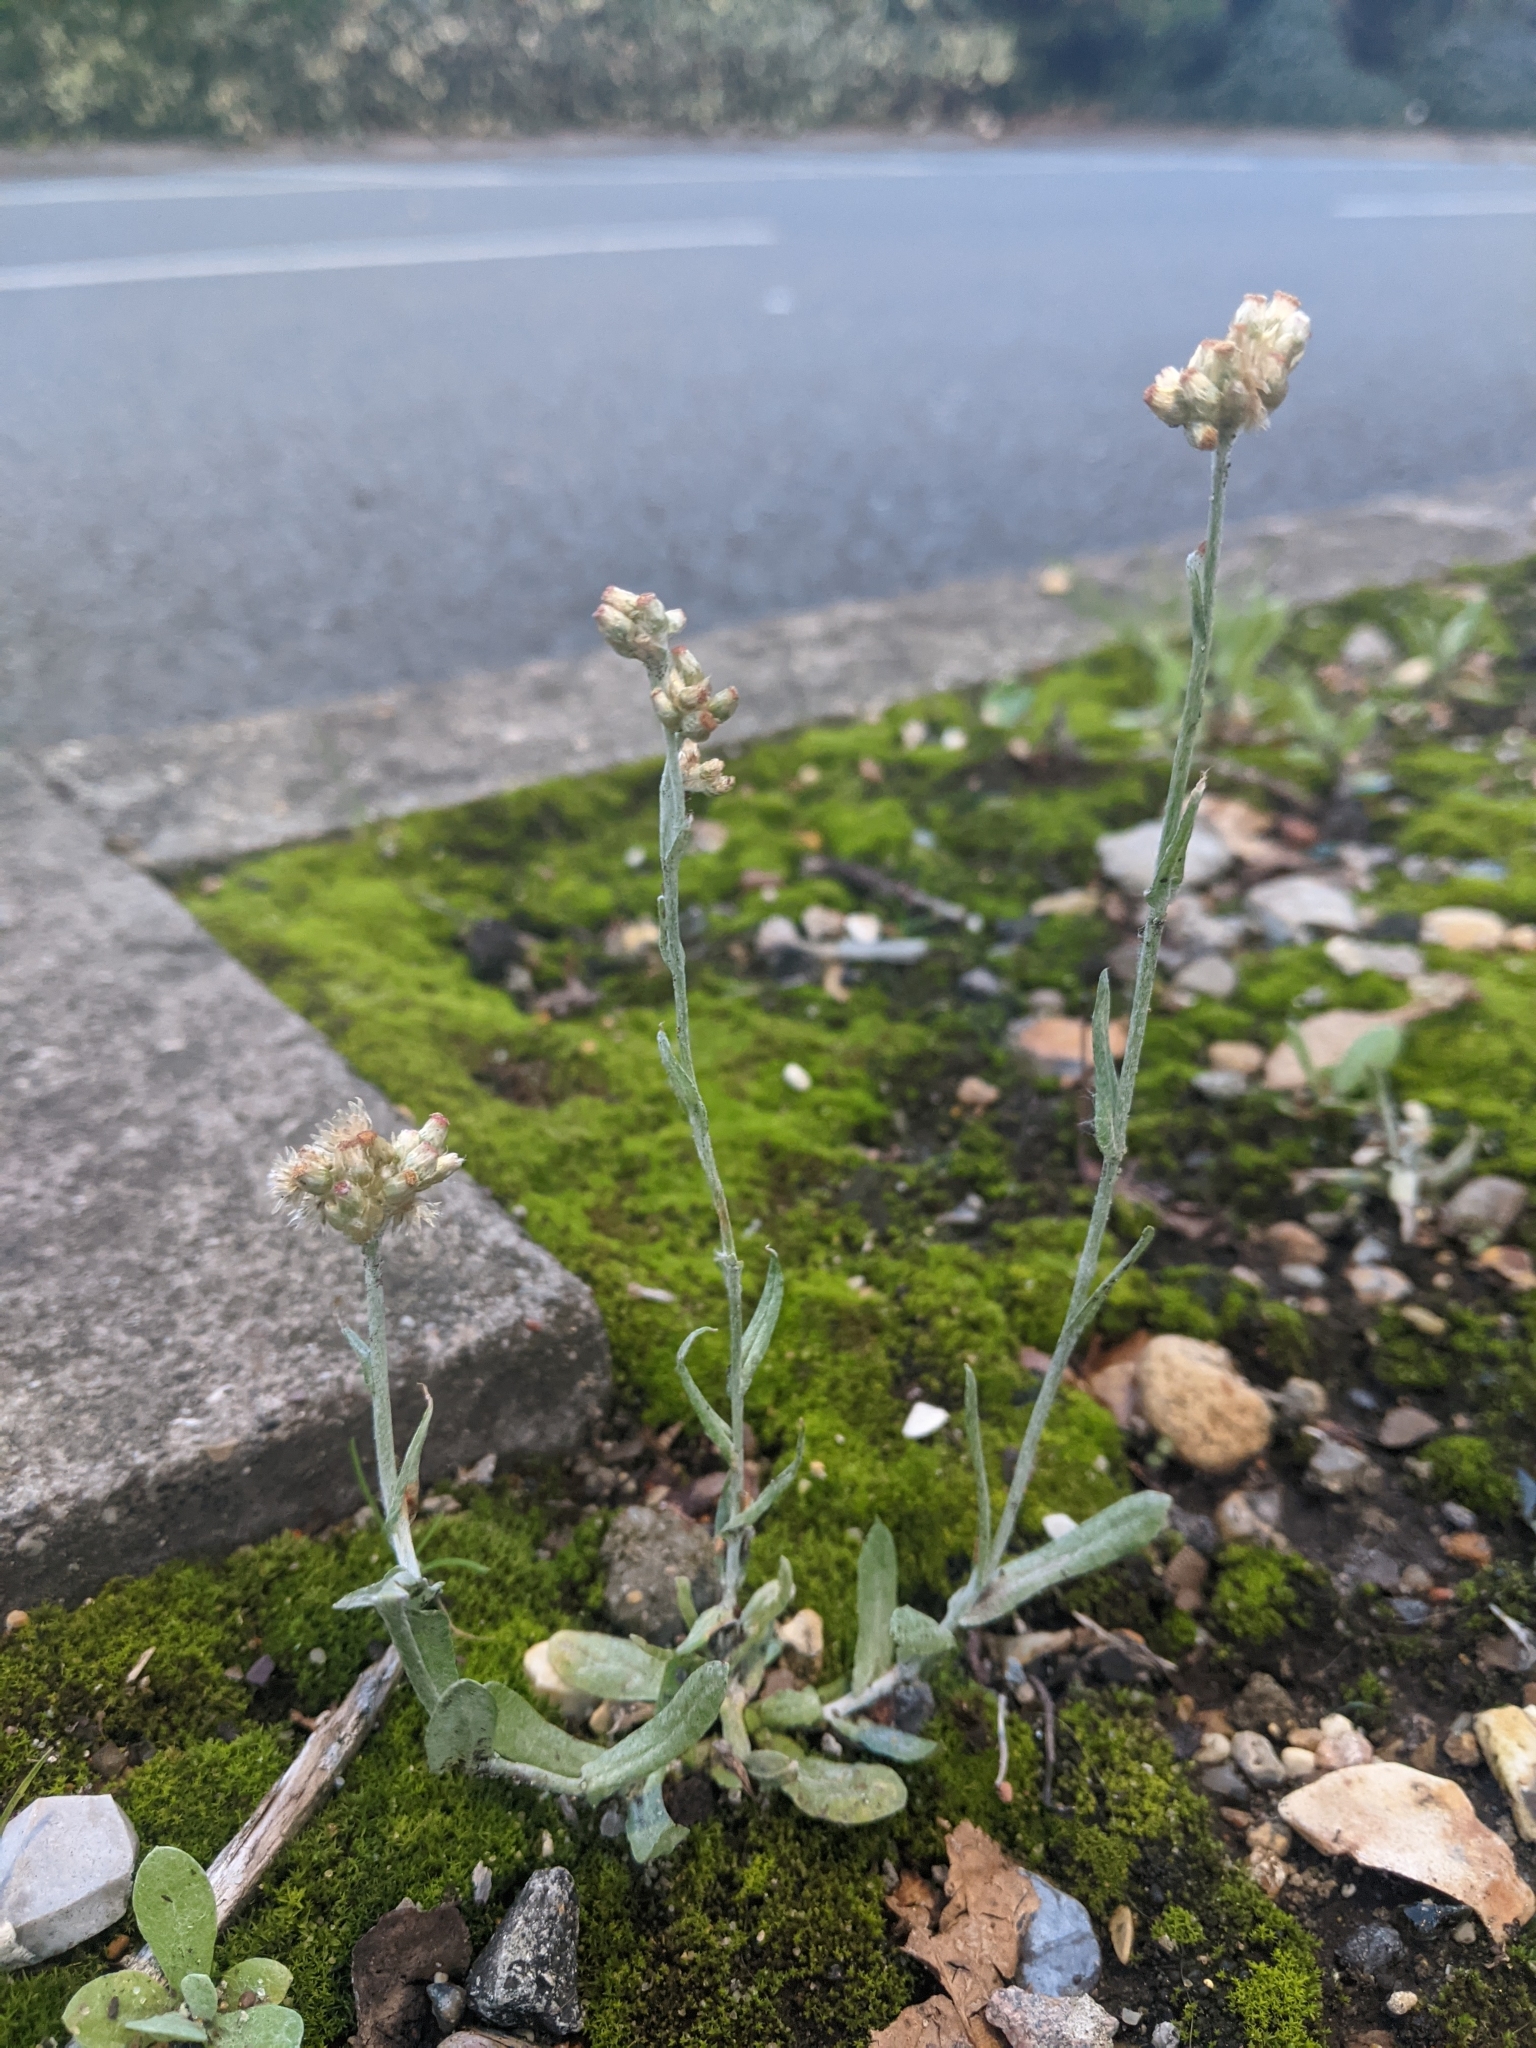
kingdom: Plantae
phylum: Tracheophyta
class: Magnoliopsida
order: Asterales
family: Asteraceae
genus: Helichrysum
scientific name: Helichrysum luteoalbum
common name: Daisy
